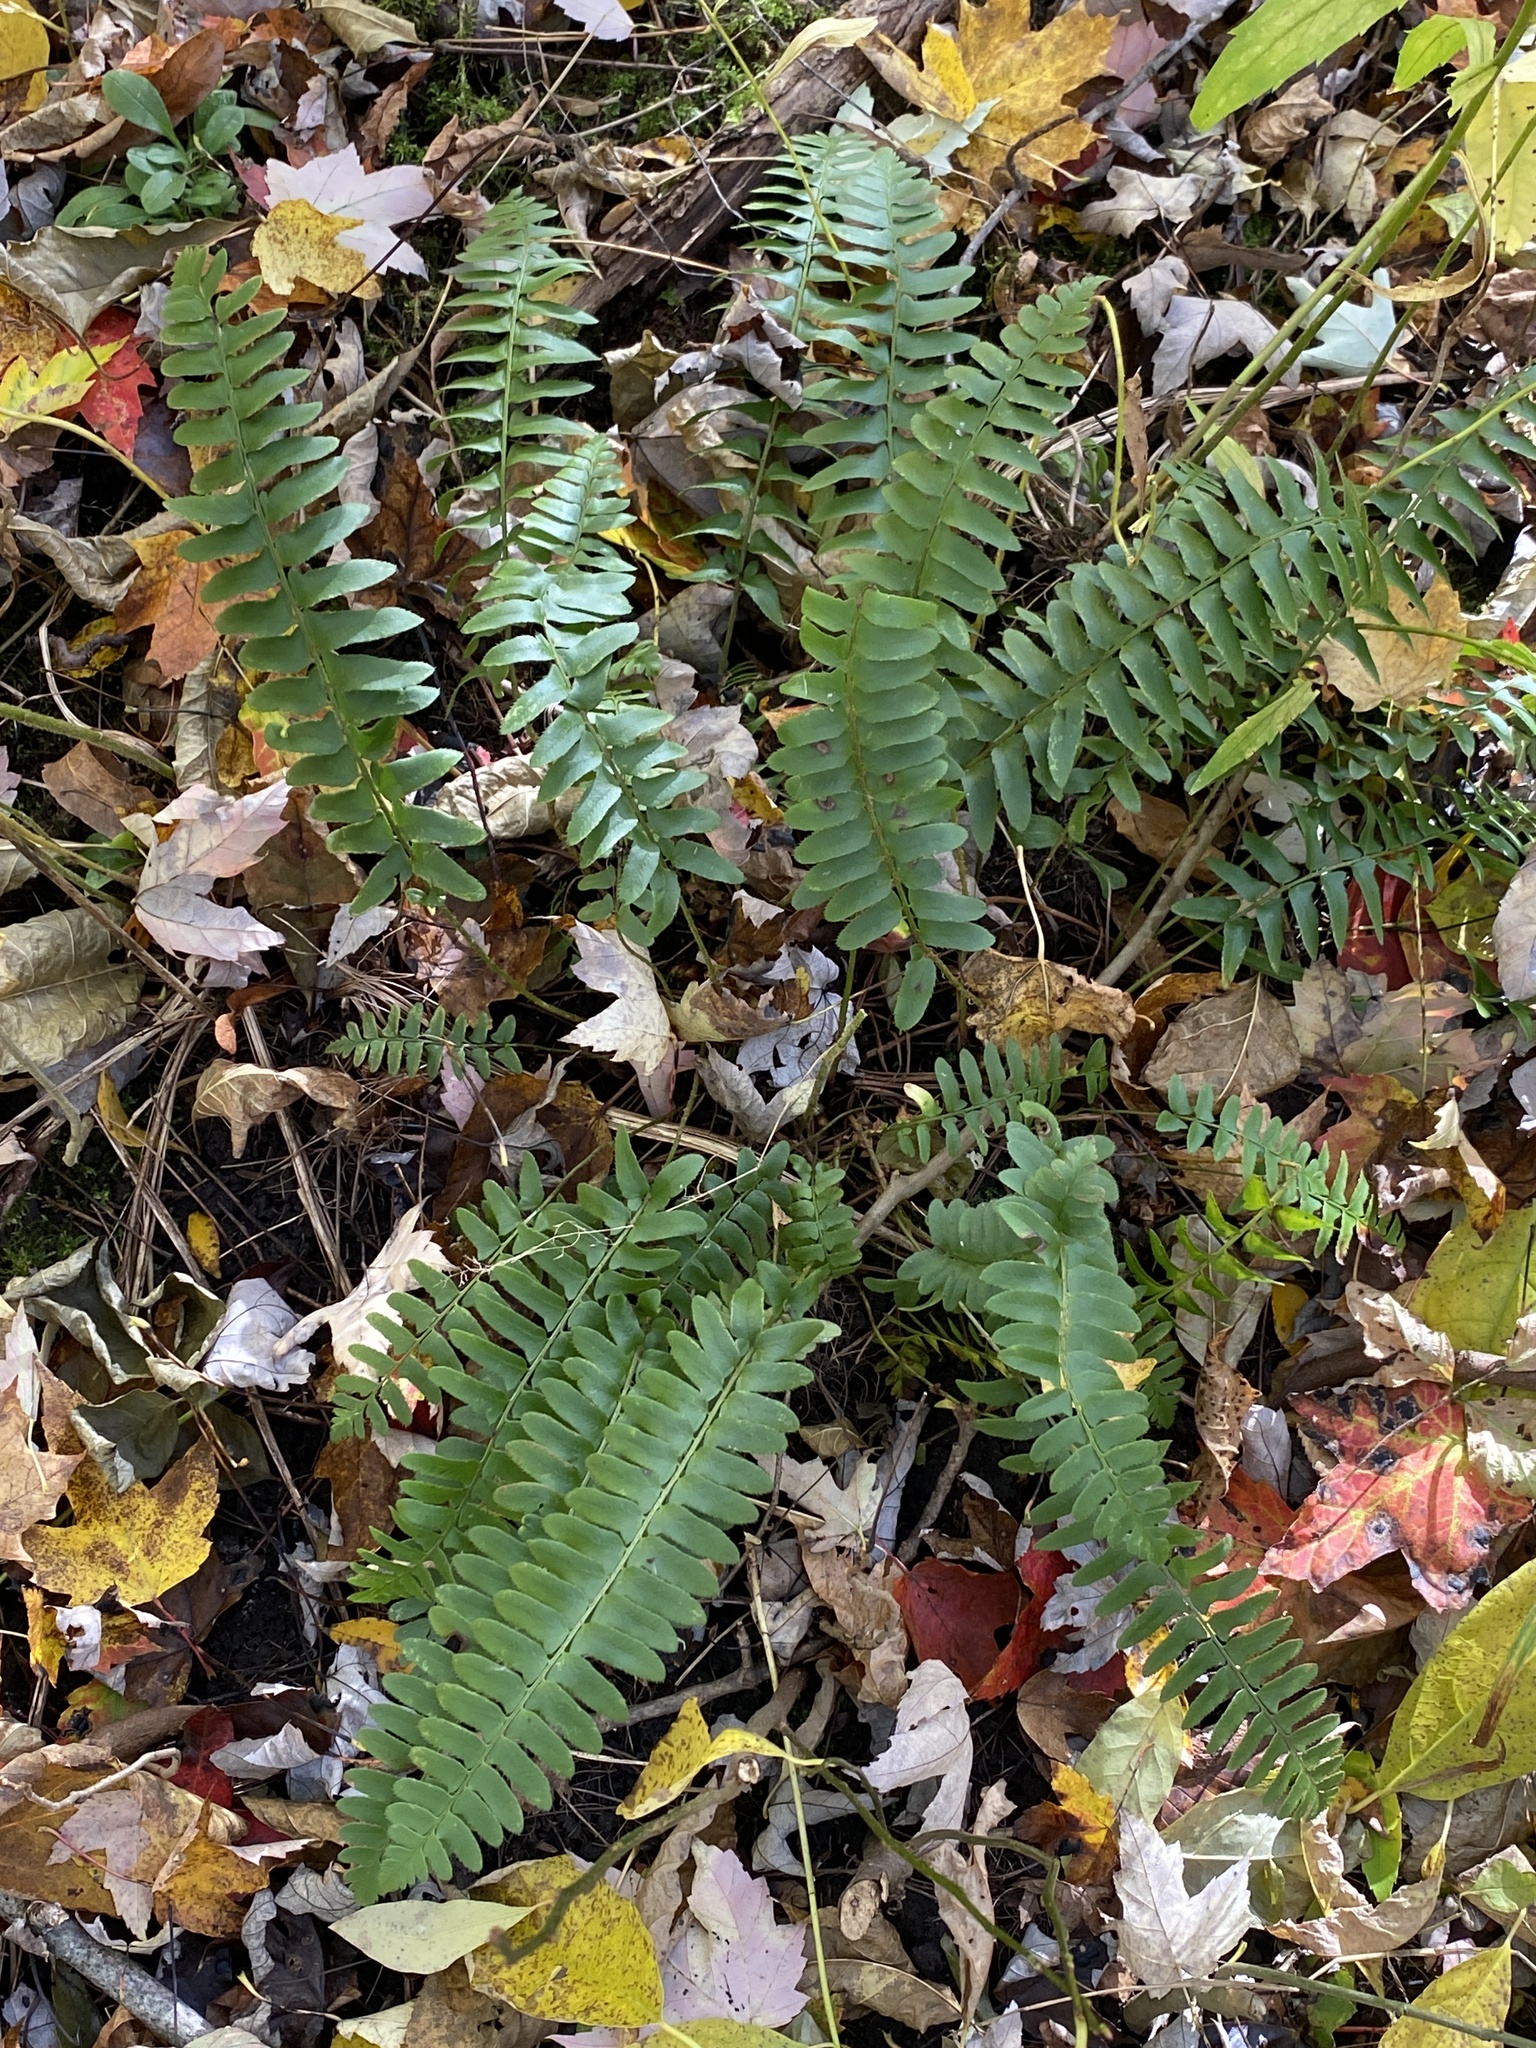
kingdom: Plantae
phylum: Tracheophyta
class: Polypodiopsida
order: Polypodiales
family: Dryopteridaceae
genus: Polystichum
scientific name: Polystichum acrostichoides
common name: Christmas fern
